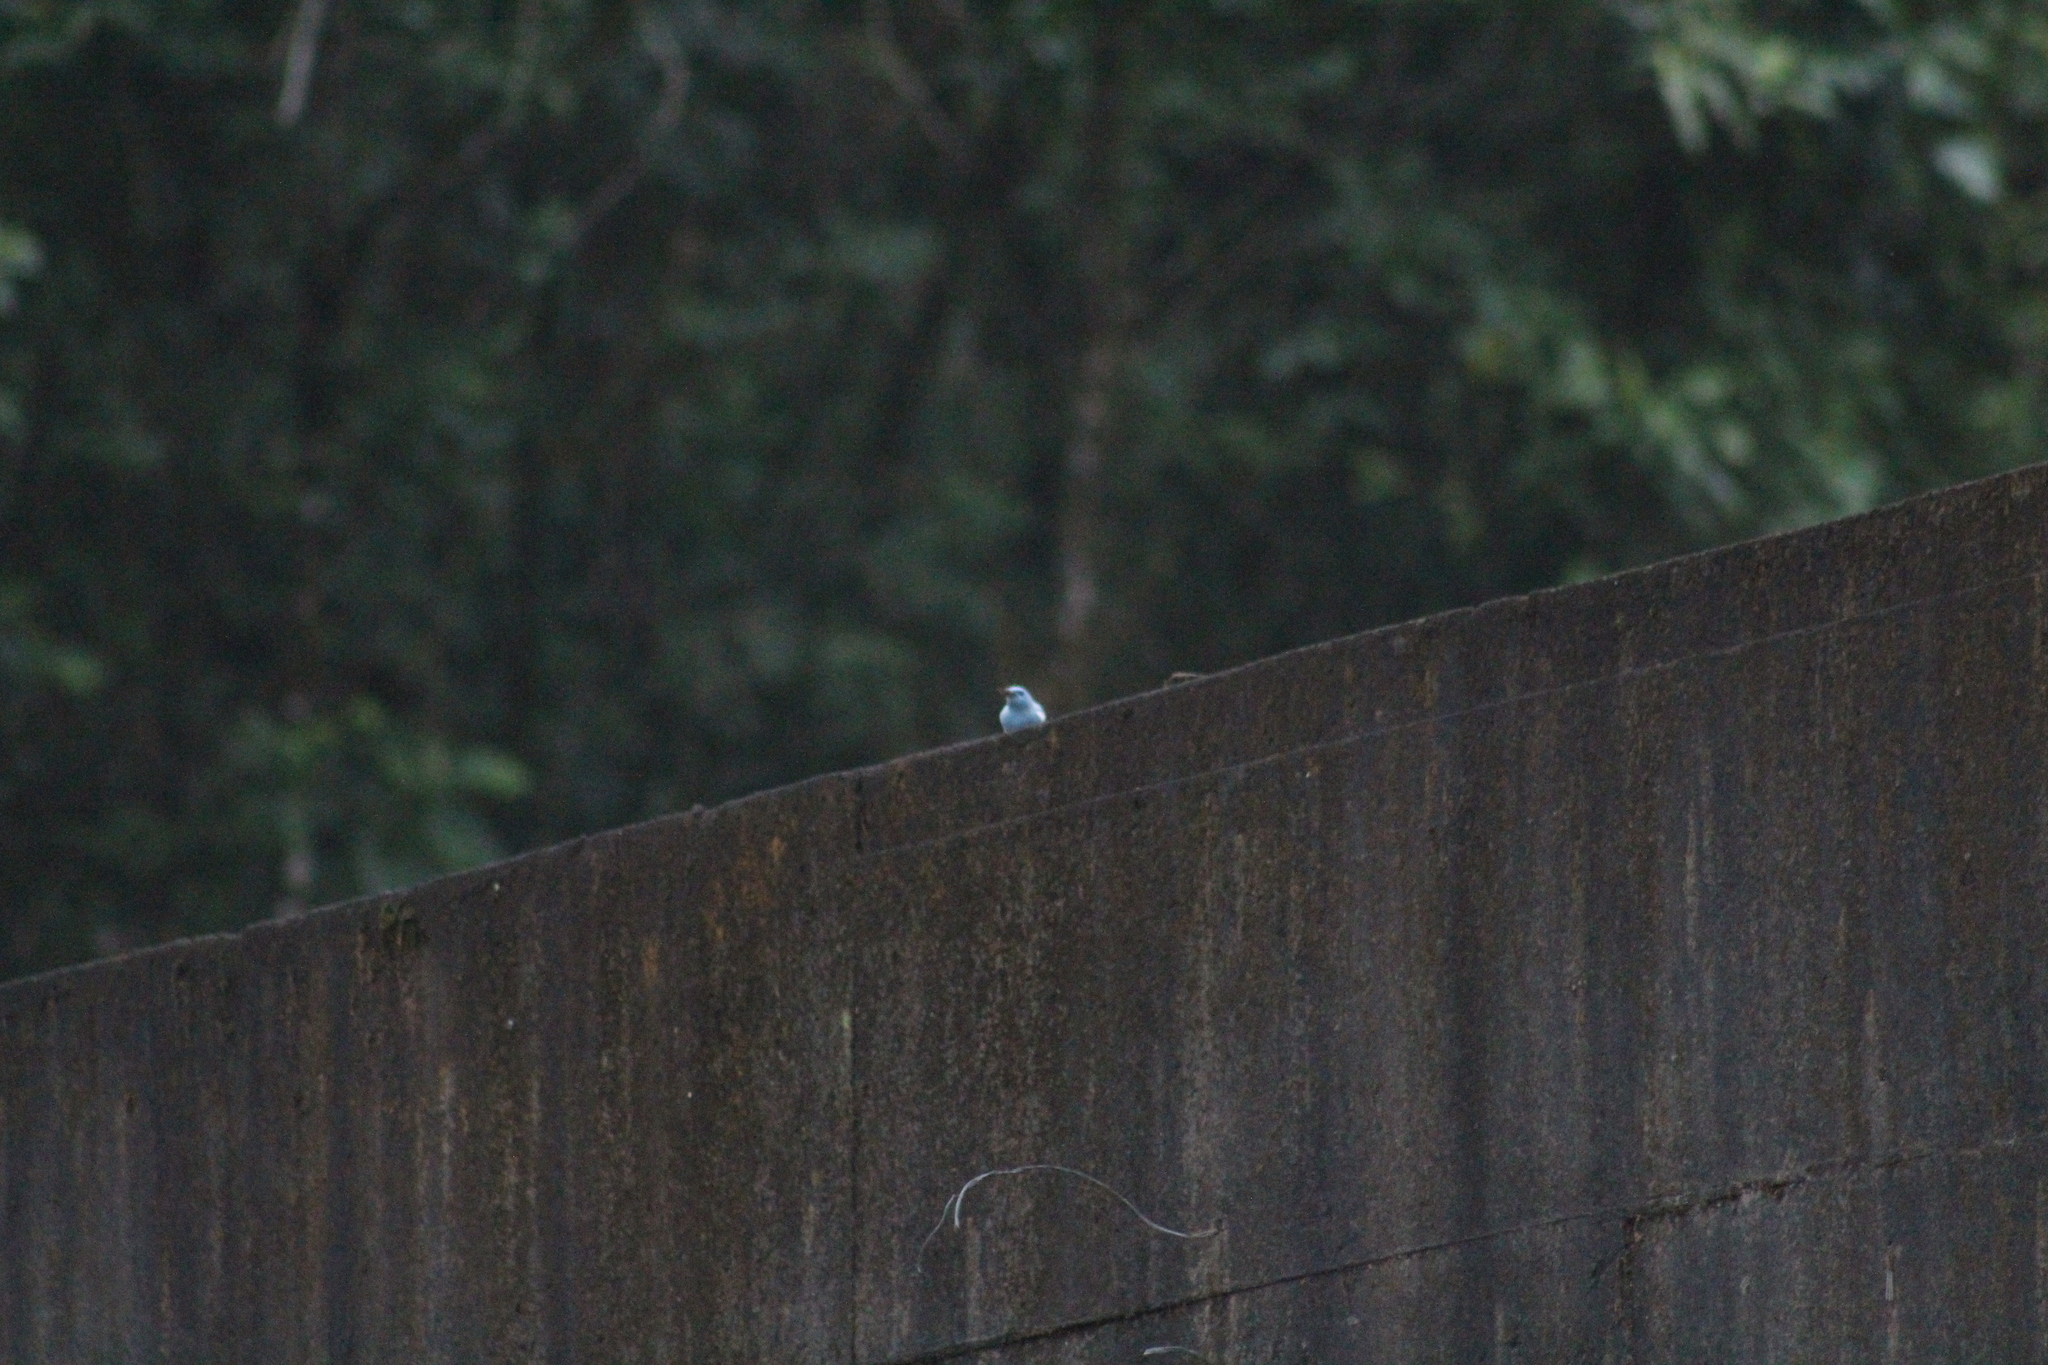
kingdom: Animalia
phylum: Chordata
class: Aves
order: Passeriformes
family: Thraupidae
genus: Thraupis
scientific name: Thraupis episcopus
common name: Blue-grey tanager
